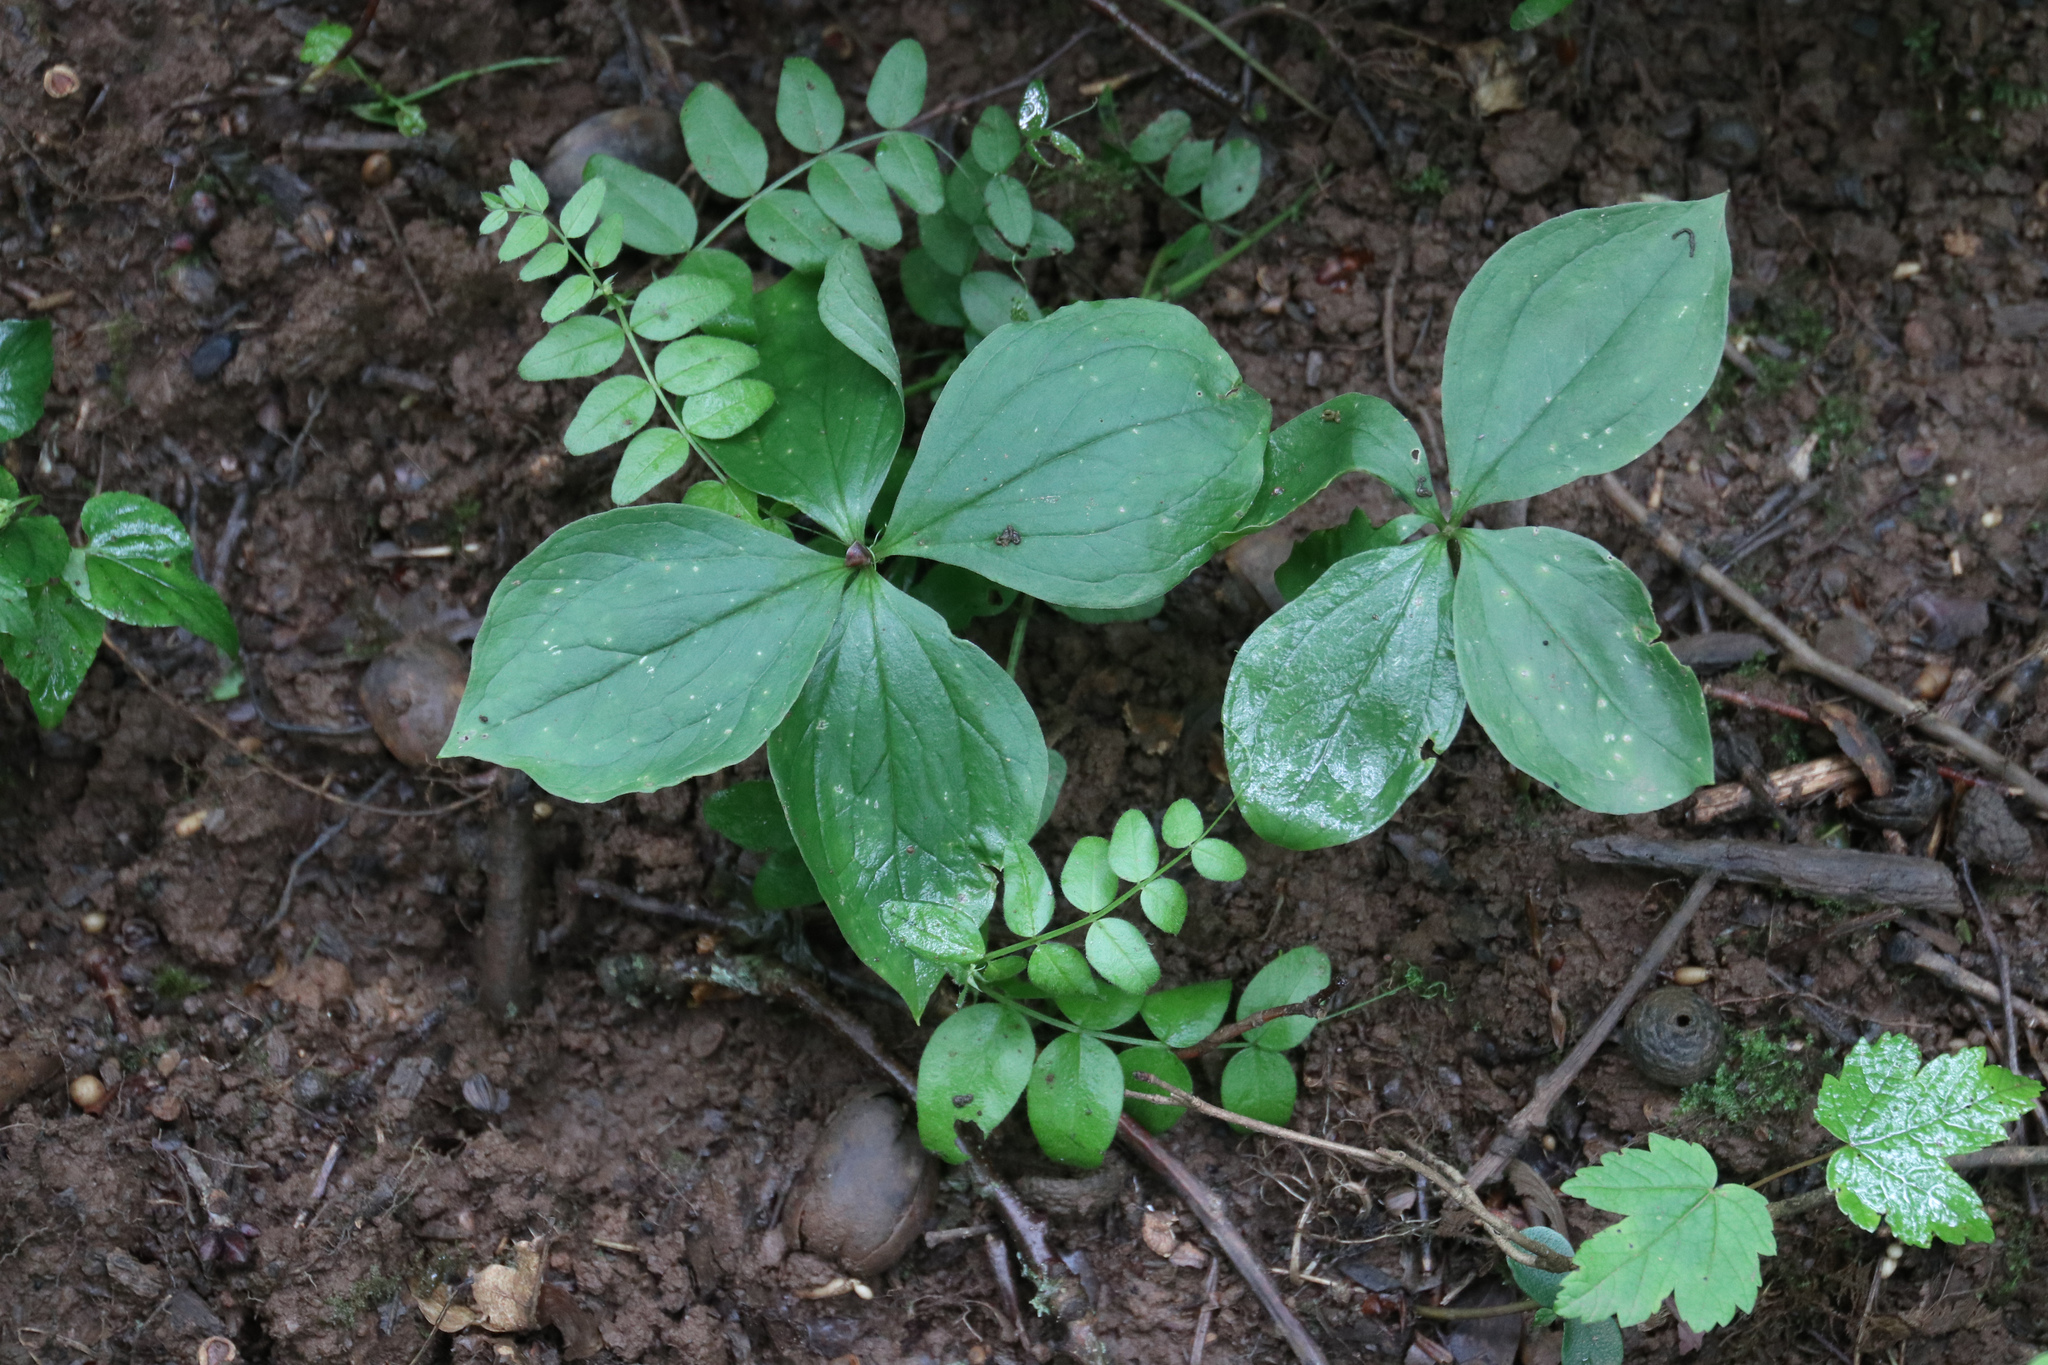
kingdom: Plantae
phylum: Tracheophyta
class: Liliopsida
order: Liliales
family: Melanthiaceae
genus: Paris
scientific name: Paris quadrifolia
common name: Herb-paris
